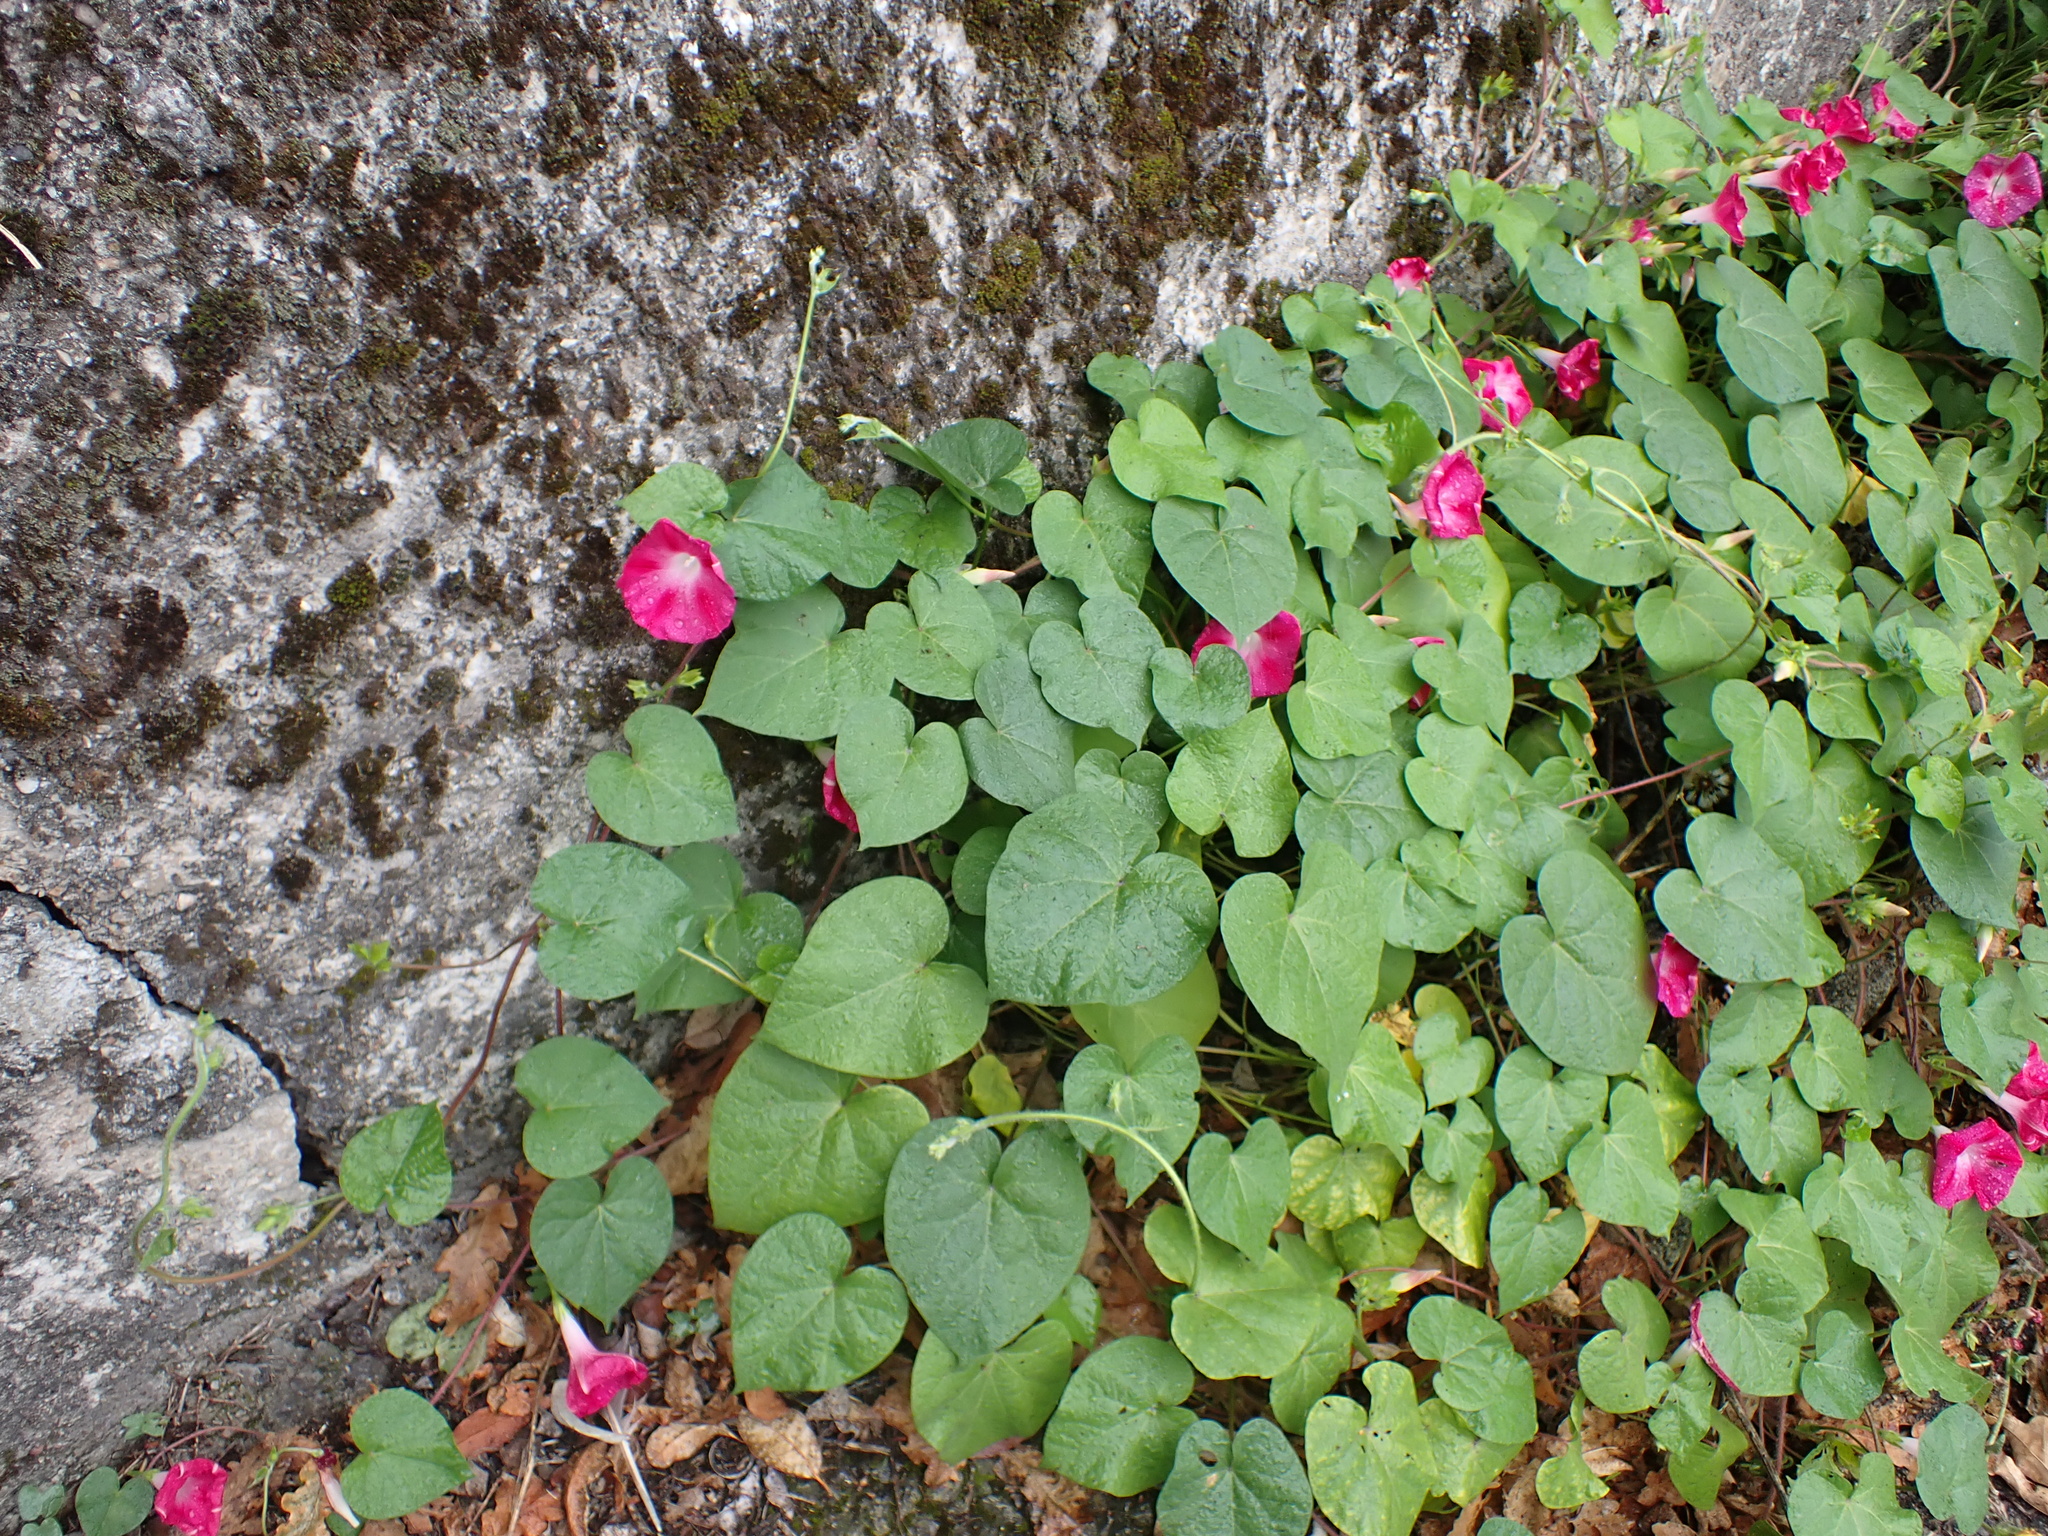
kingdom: Plantae
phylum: Tracheophyta
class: Magnoliopsida
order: Solanales
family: Convolvulaceae
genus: Ipomoea
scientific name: Ipomoea purpurea
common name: Common morning-glory
